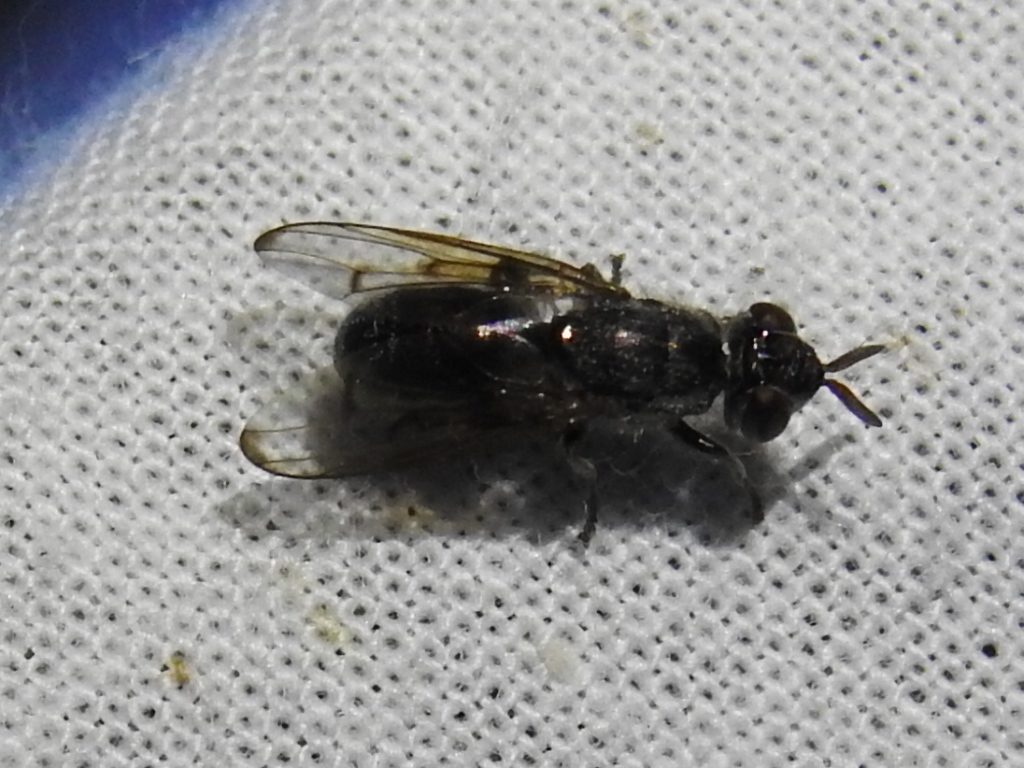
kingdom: Animalia
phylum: Arthropoda
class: Insecta
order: Diptera
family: Platystomatidae
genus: Senopterina
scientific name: Senopterina foxleei
